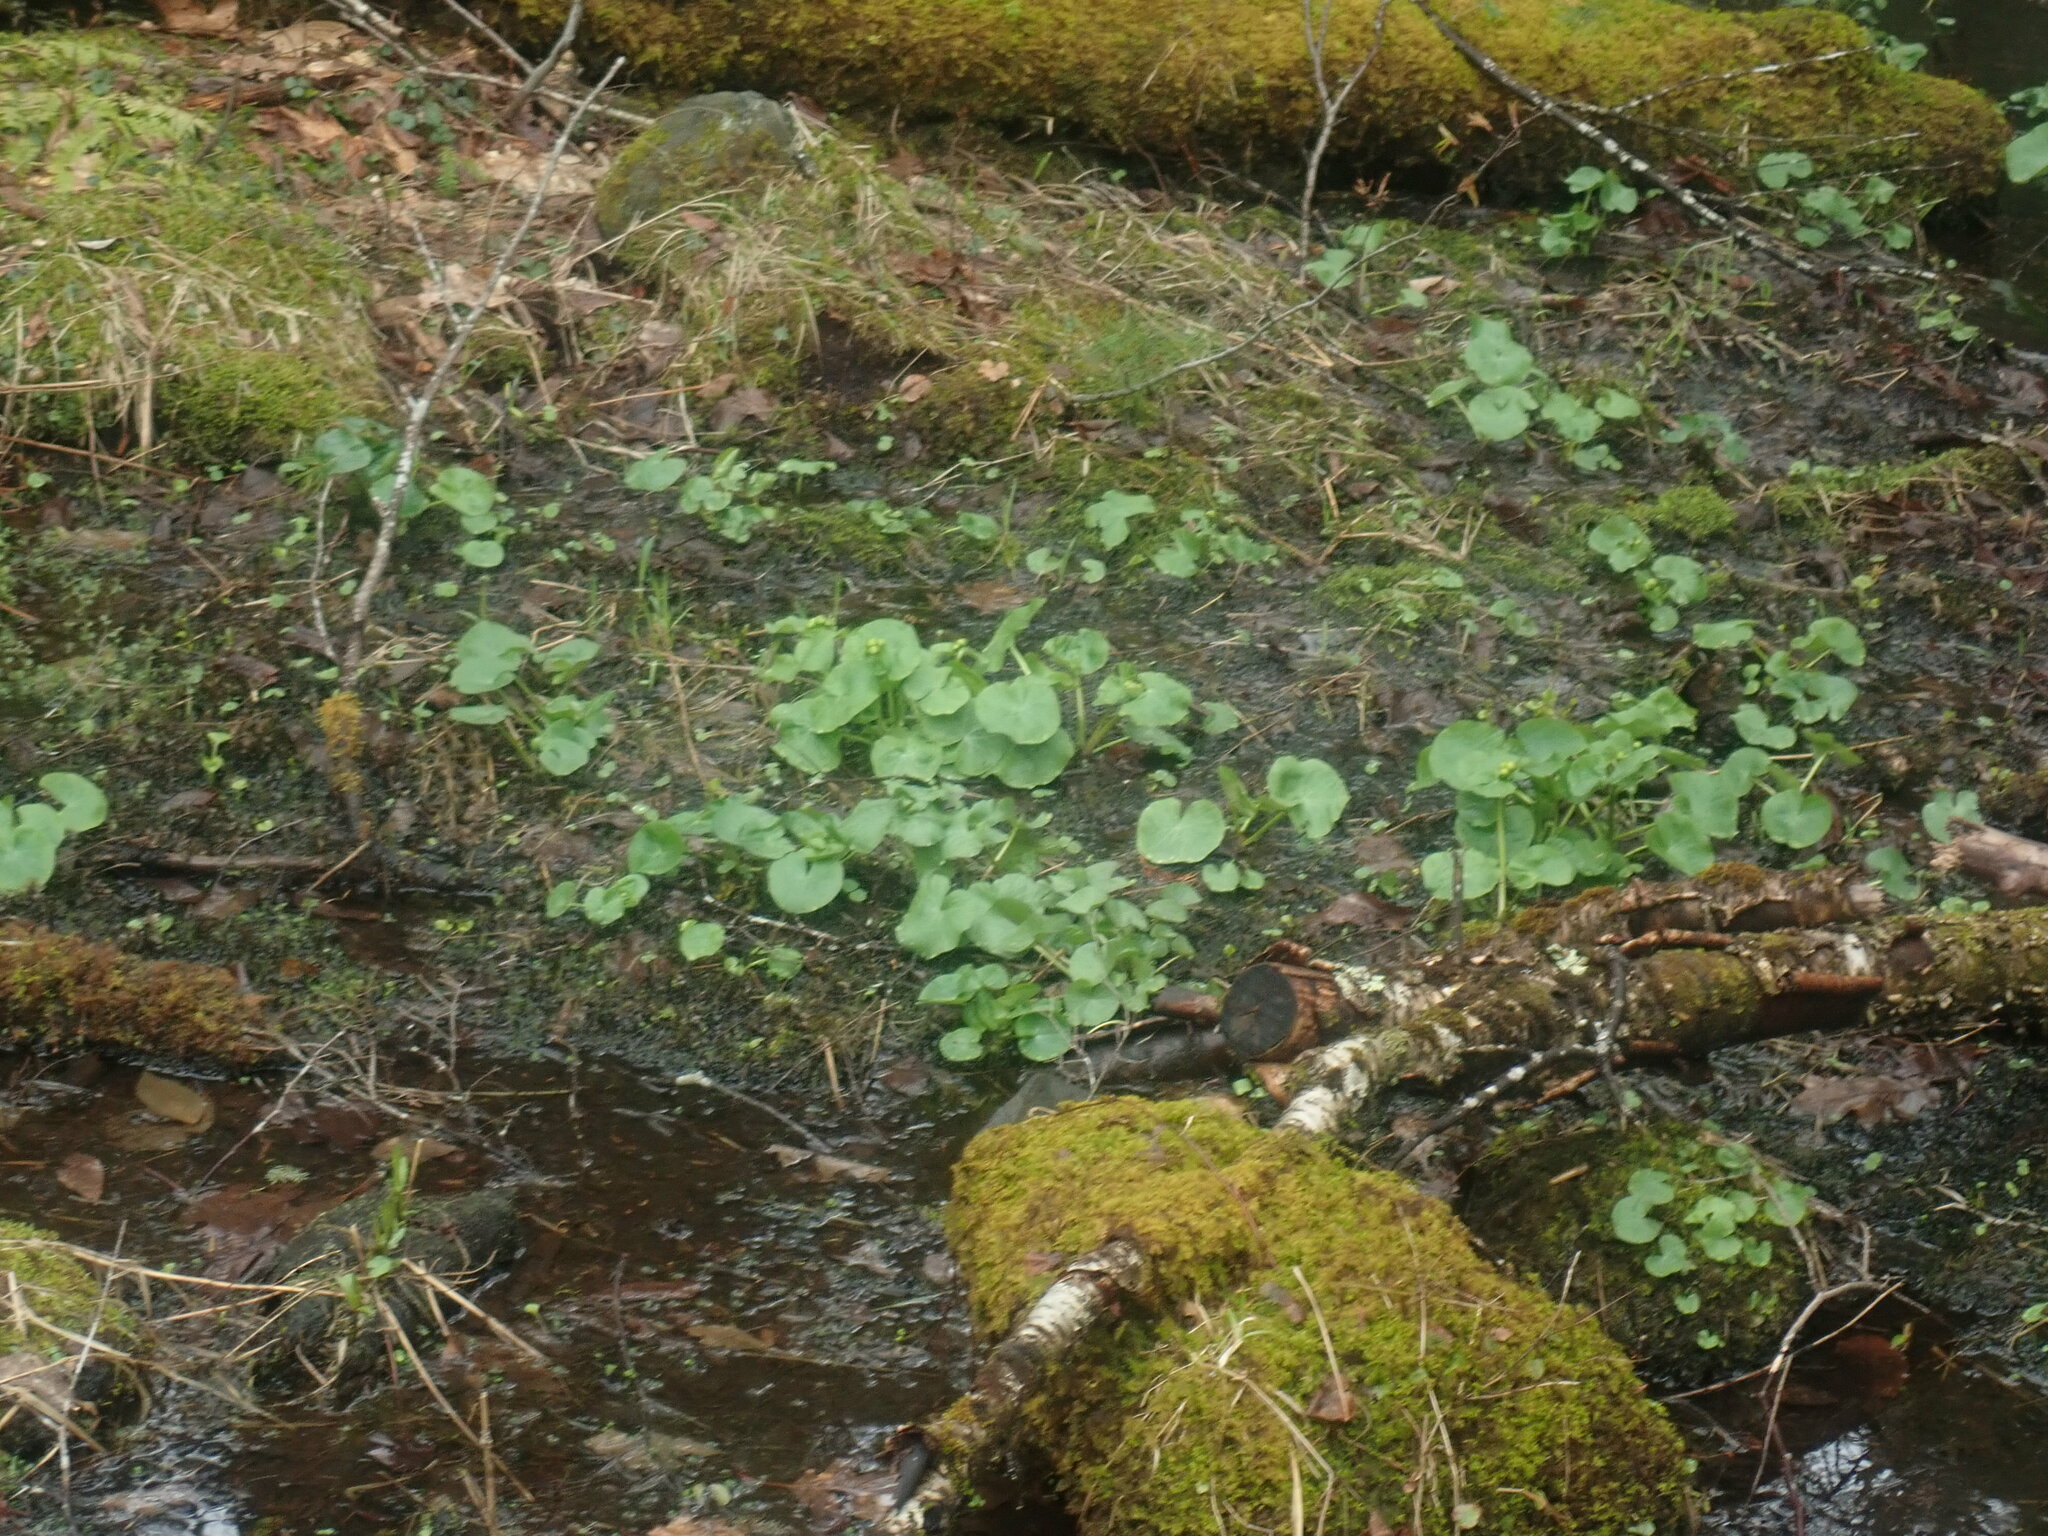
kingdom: Plantae
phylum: Tracheophyta
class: Magnoliopsida
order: Ranunculales
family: Ranunculaceae
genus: Caltha
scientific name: Caltha palustris
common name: Marsh marigold
